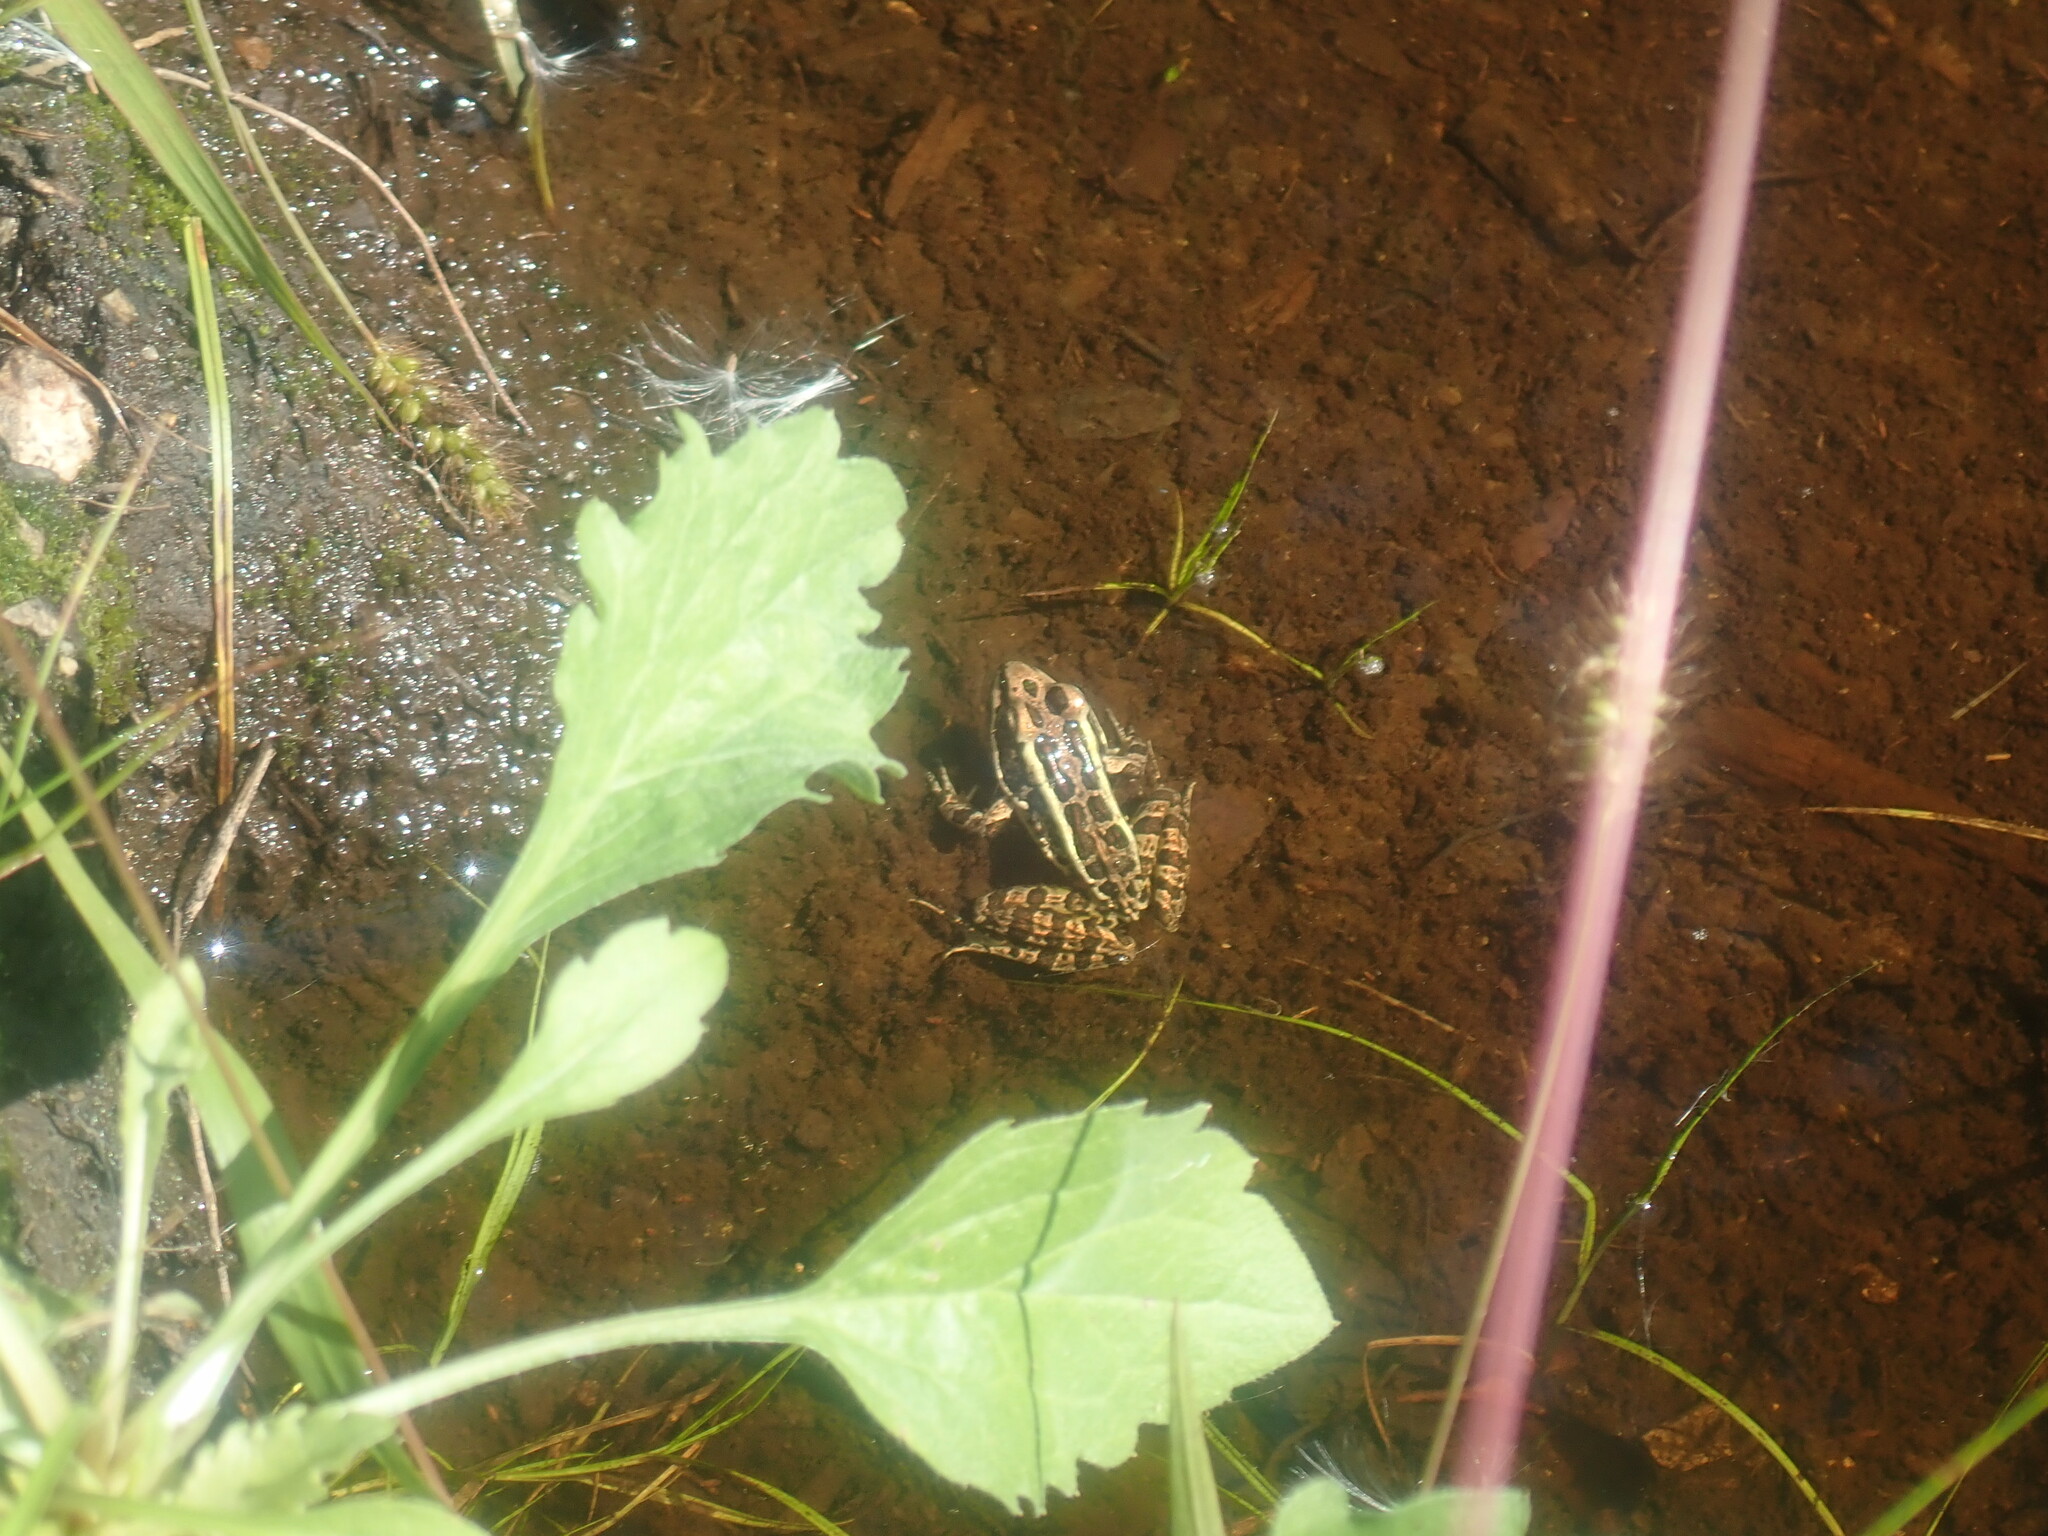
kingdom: Animalia
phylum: Chordata
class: Amphibia
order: Anura
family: Ranidae
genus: Lithobates
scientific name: Lithobates palustris
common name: Pickerel frog
